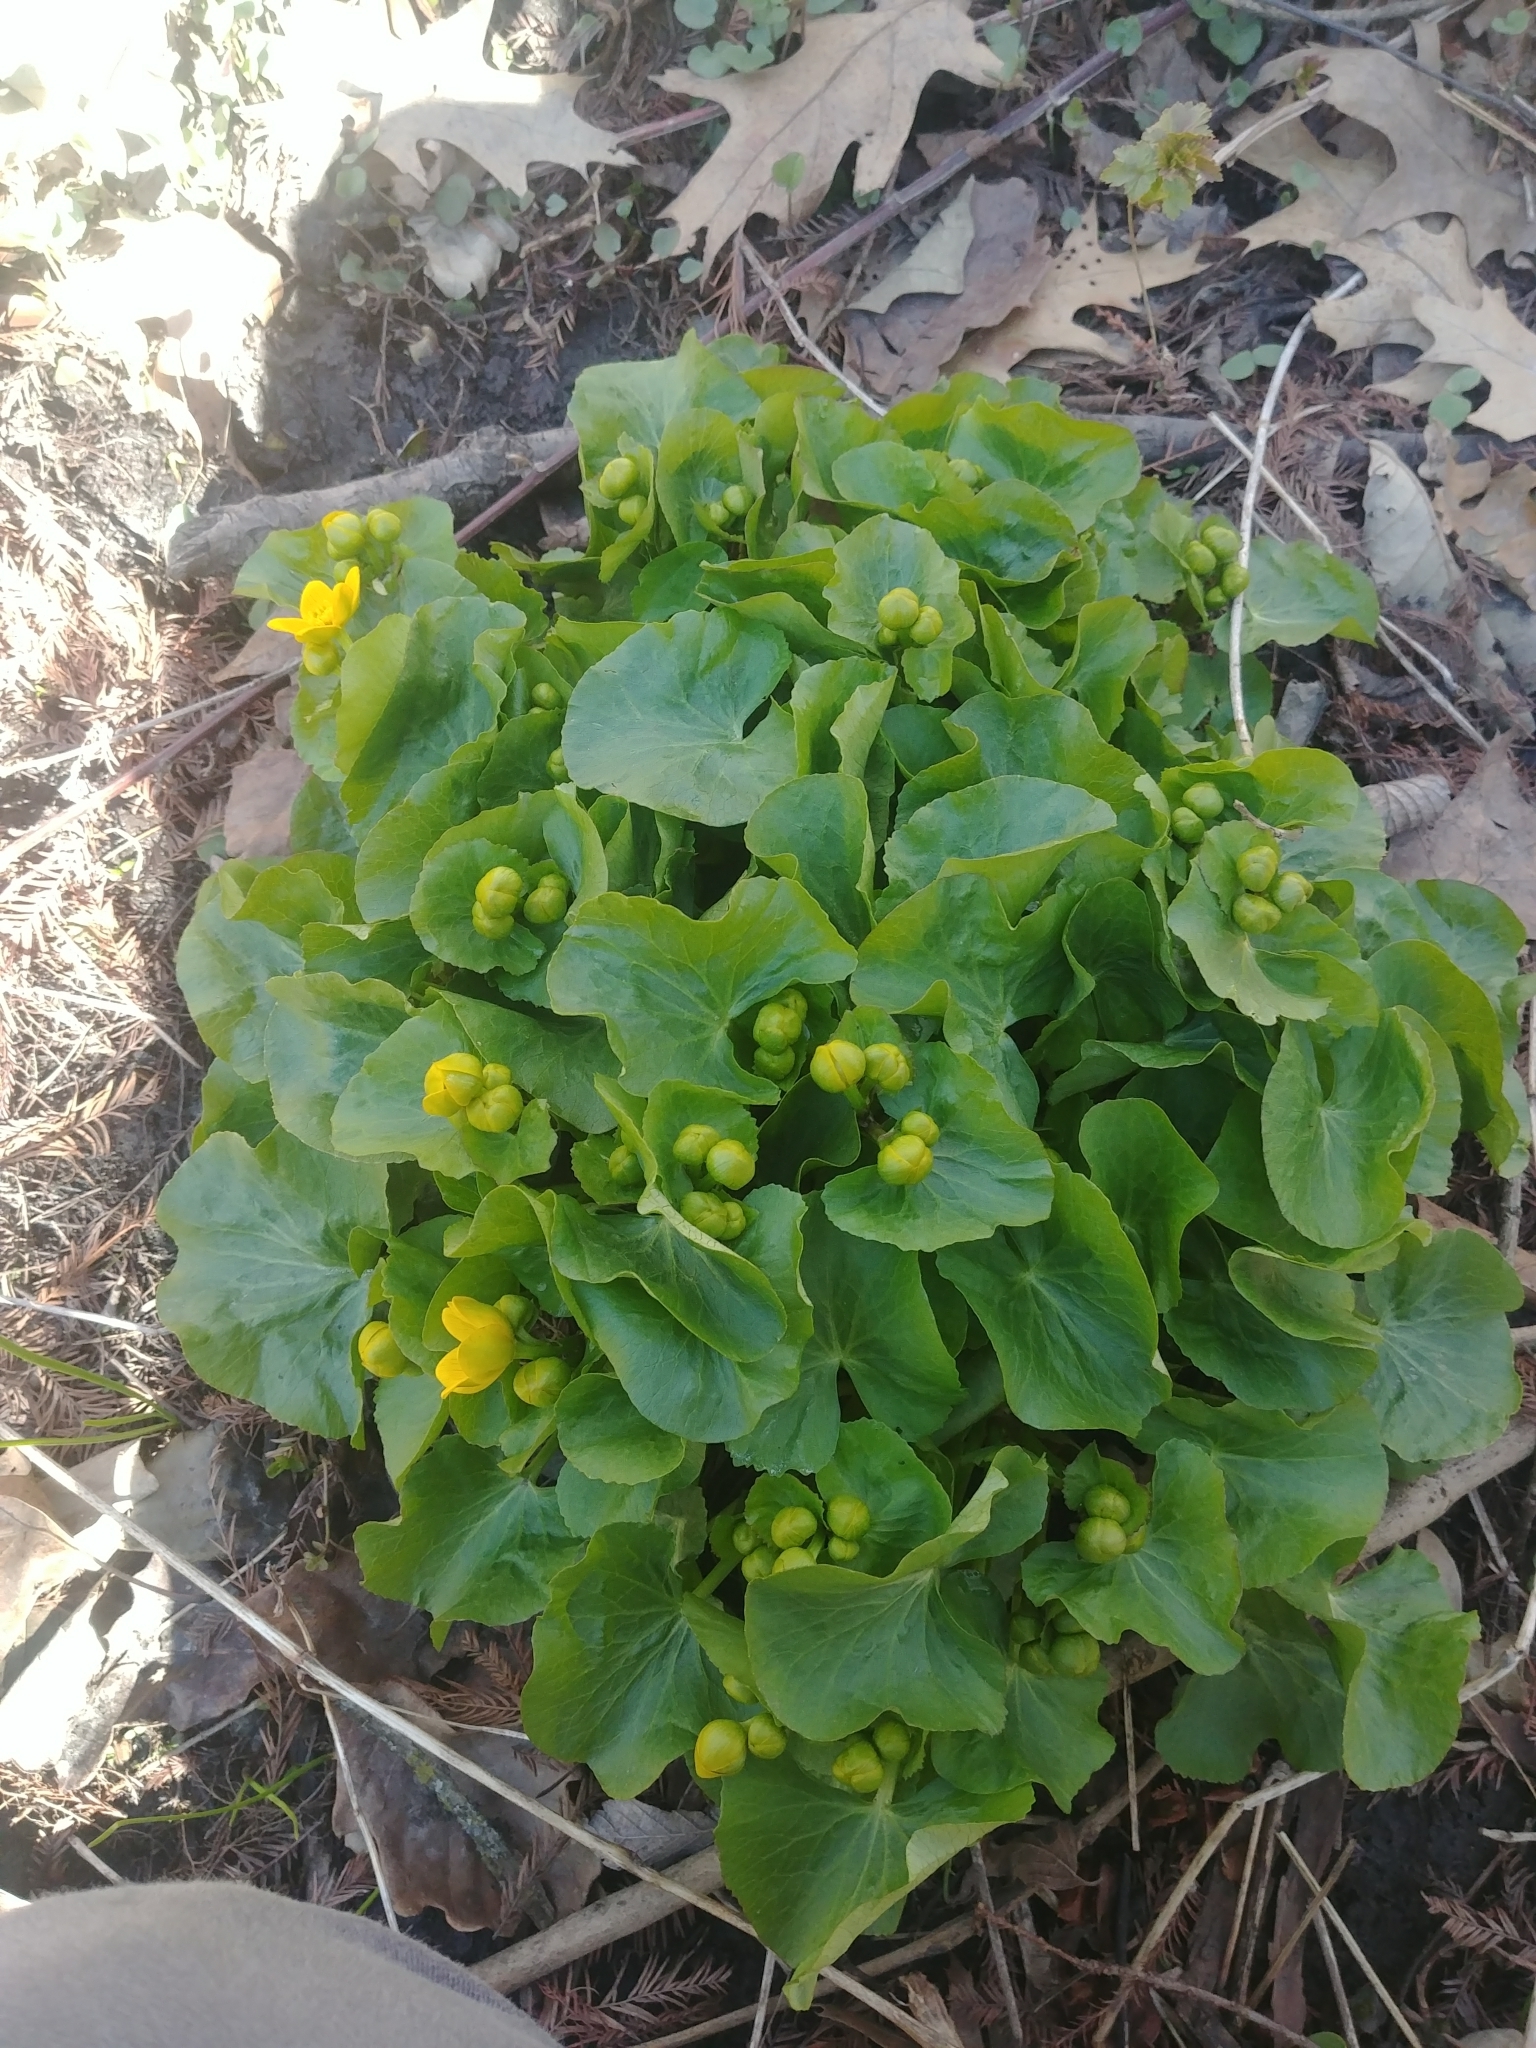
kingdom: Plantae
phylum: Tracheophyta
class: Magnoliopsida
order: Ranunculales
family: Ranunculaceae
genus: Caltha
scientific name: Caltha palustris
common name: Marsh marigold
